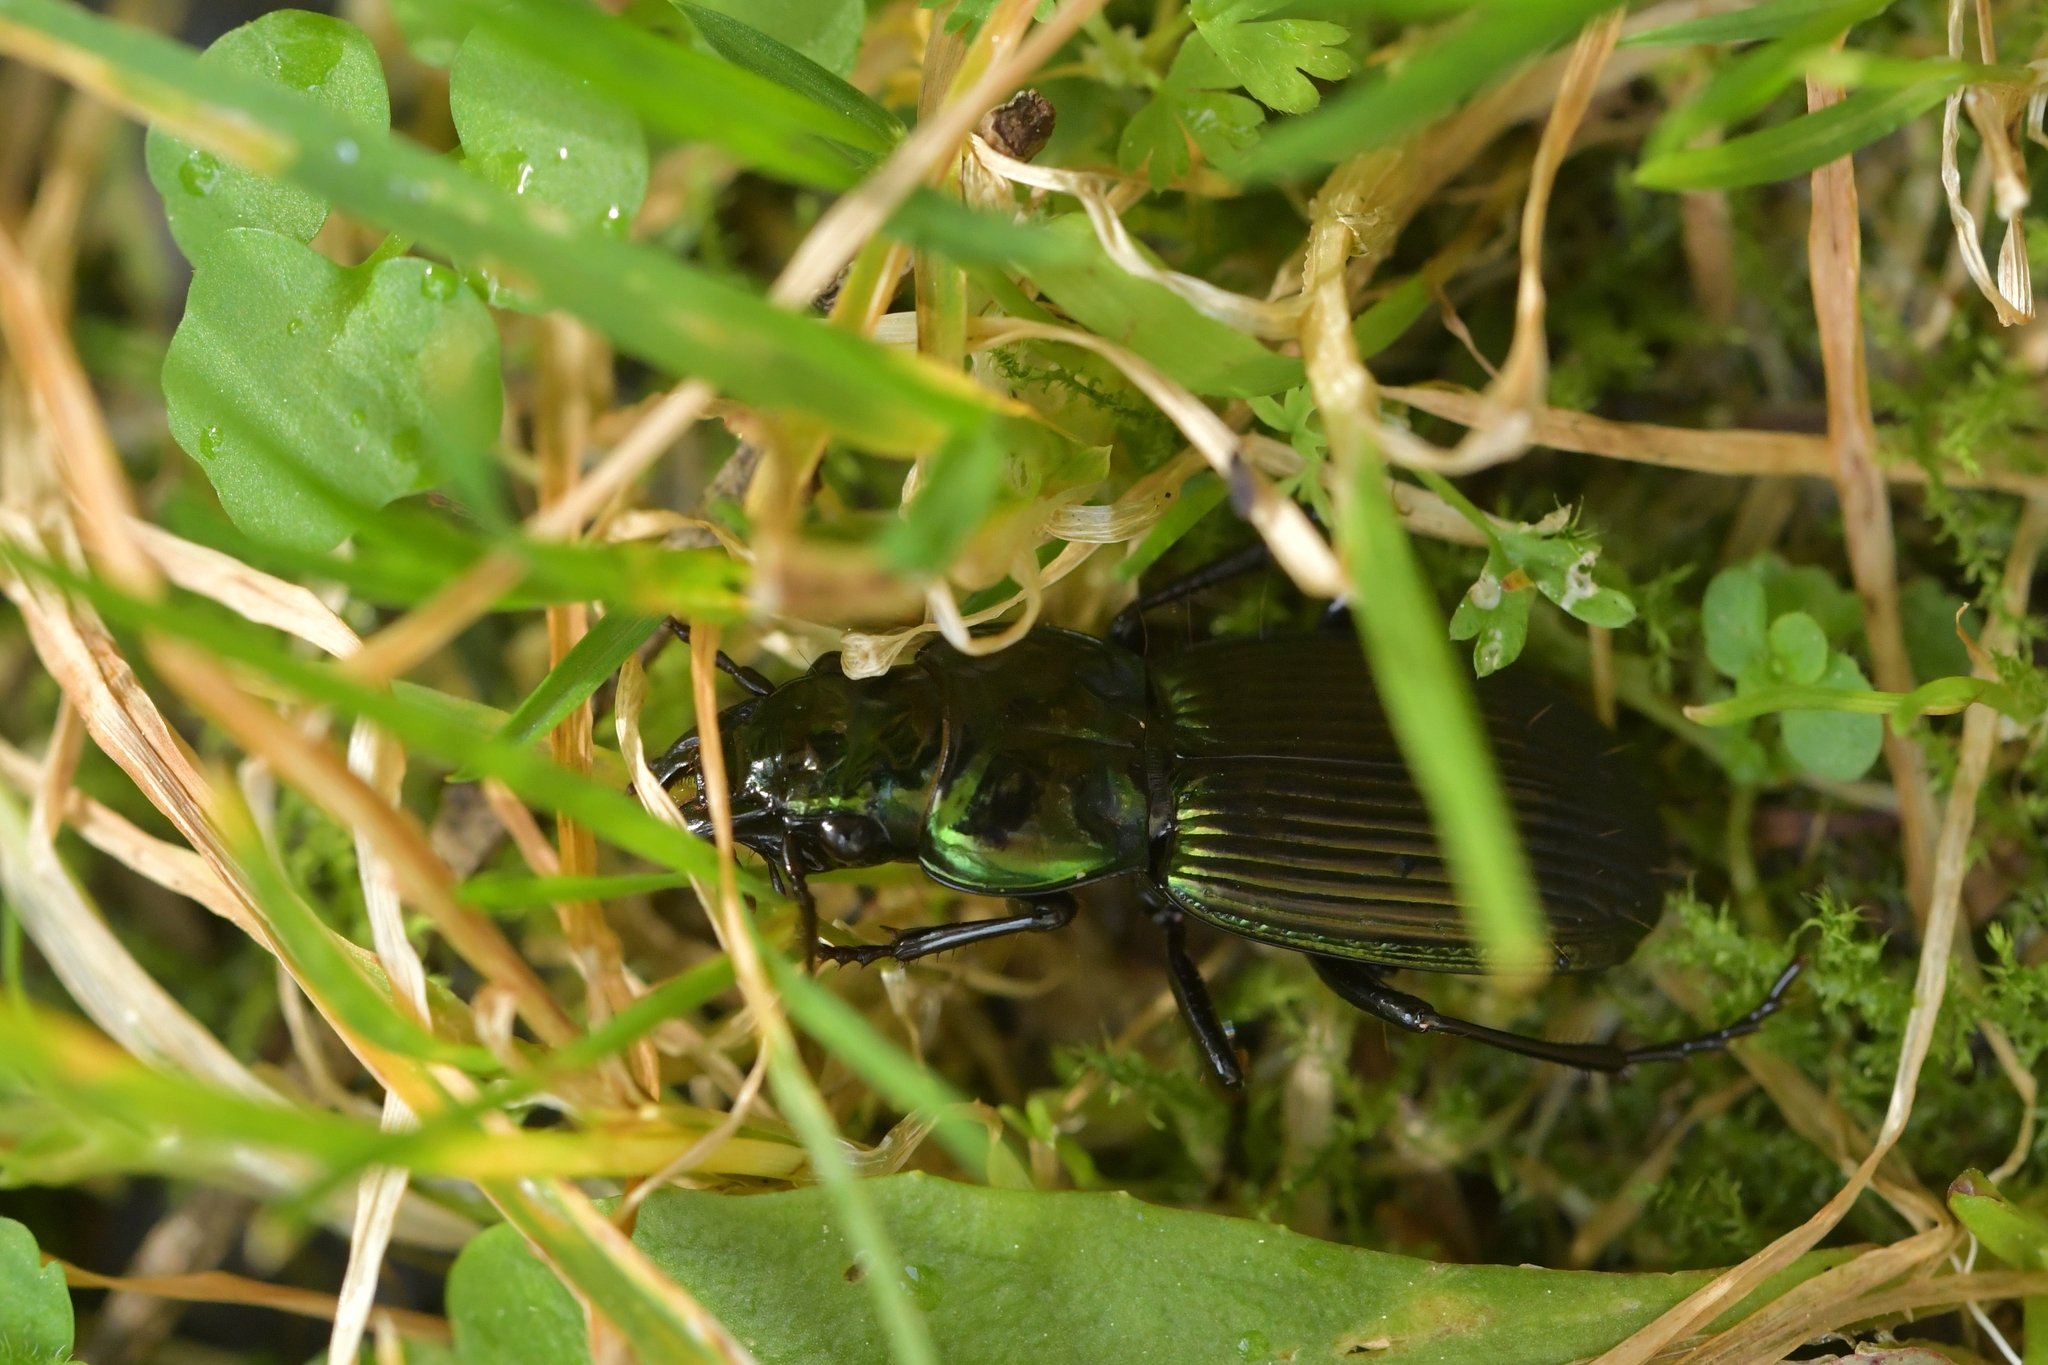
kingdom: Animalia
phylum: Arthropoda
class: Insecta
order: Coleoptera
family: Carabidae
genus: Megadromus
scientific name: Megadromus capito
